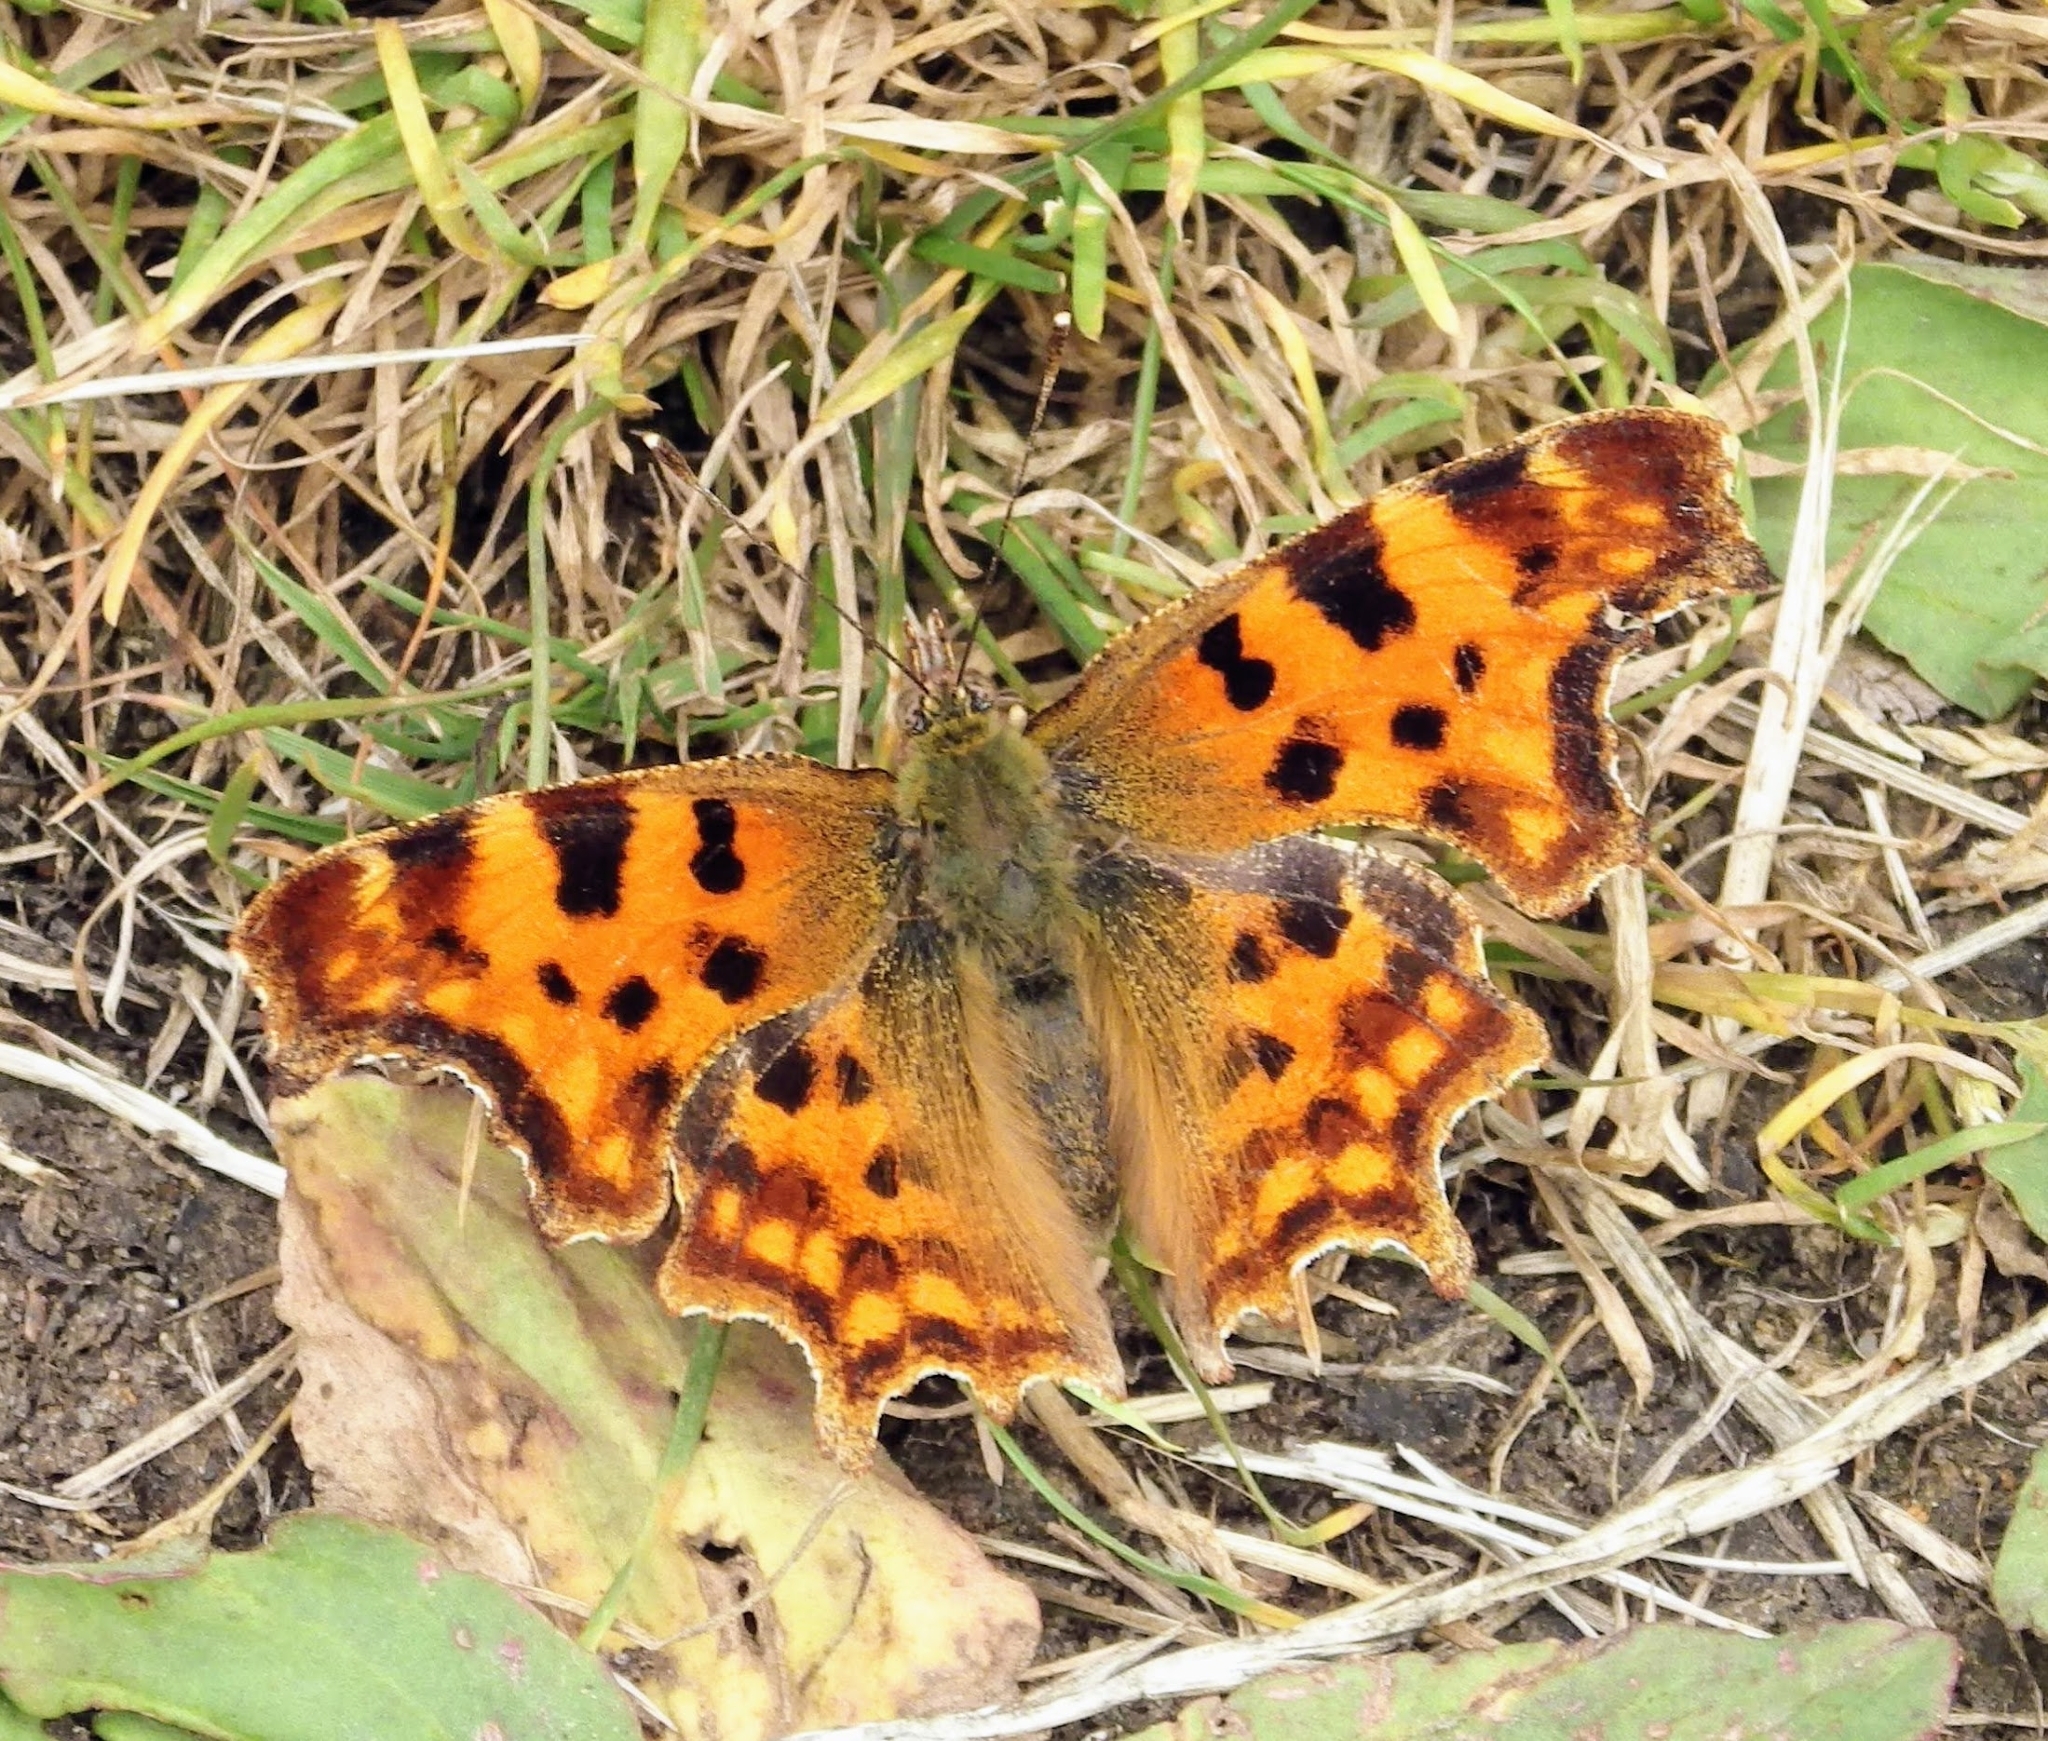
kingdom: Animalia
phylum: Arthropoda
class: Insecta
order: Lepidoptera
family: Nymphalidae
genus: Polygonia
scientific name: Polygonia c-album
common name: Comma
